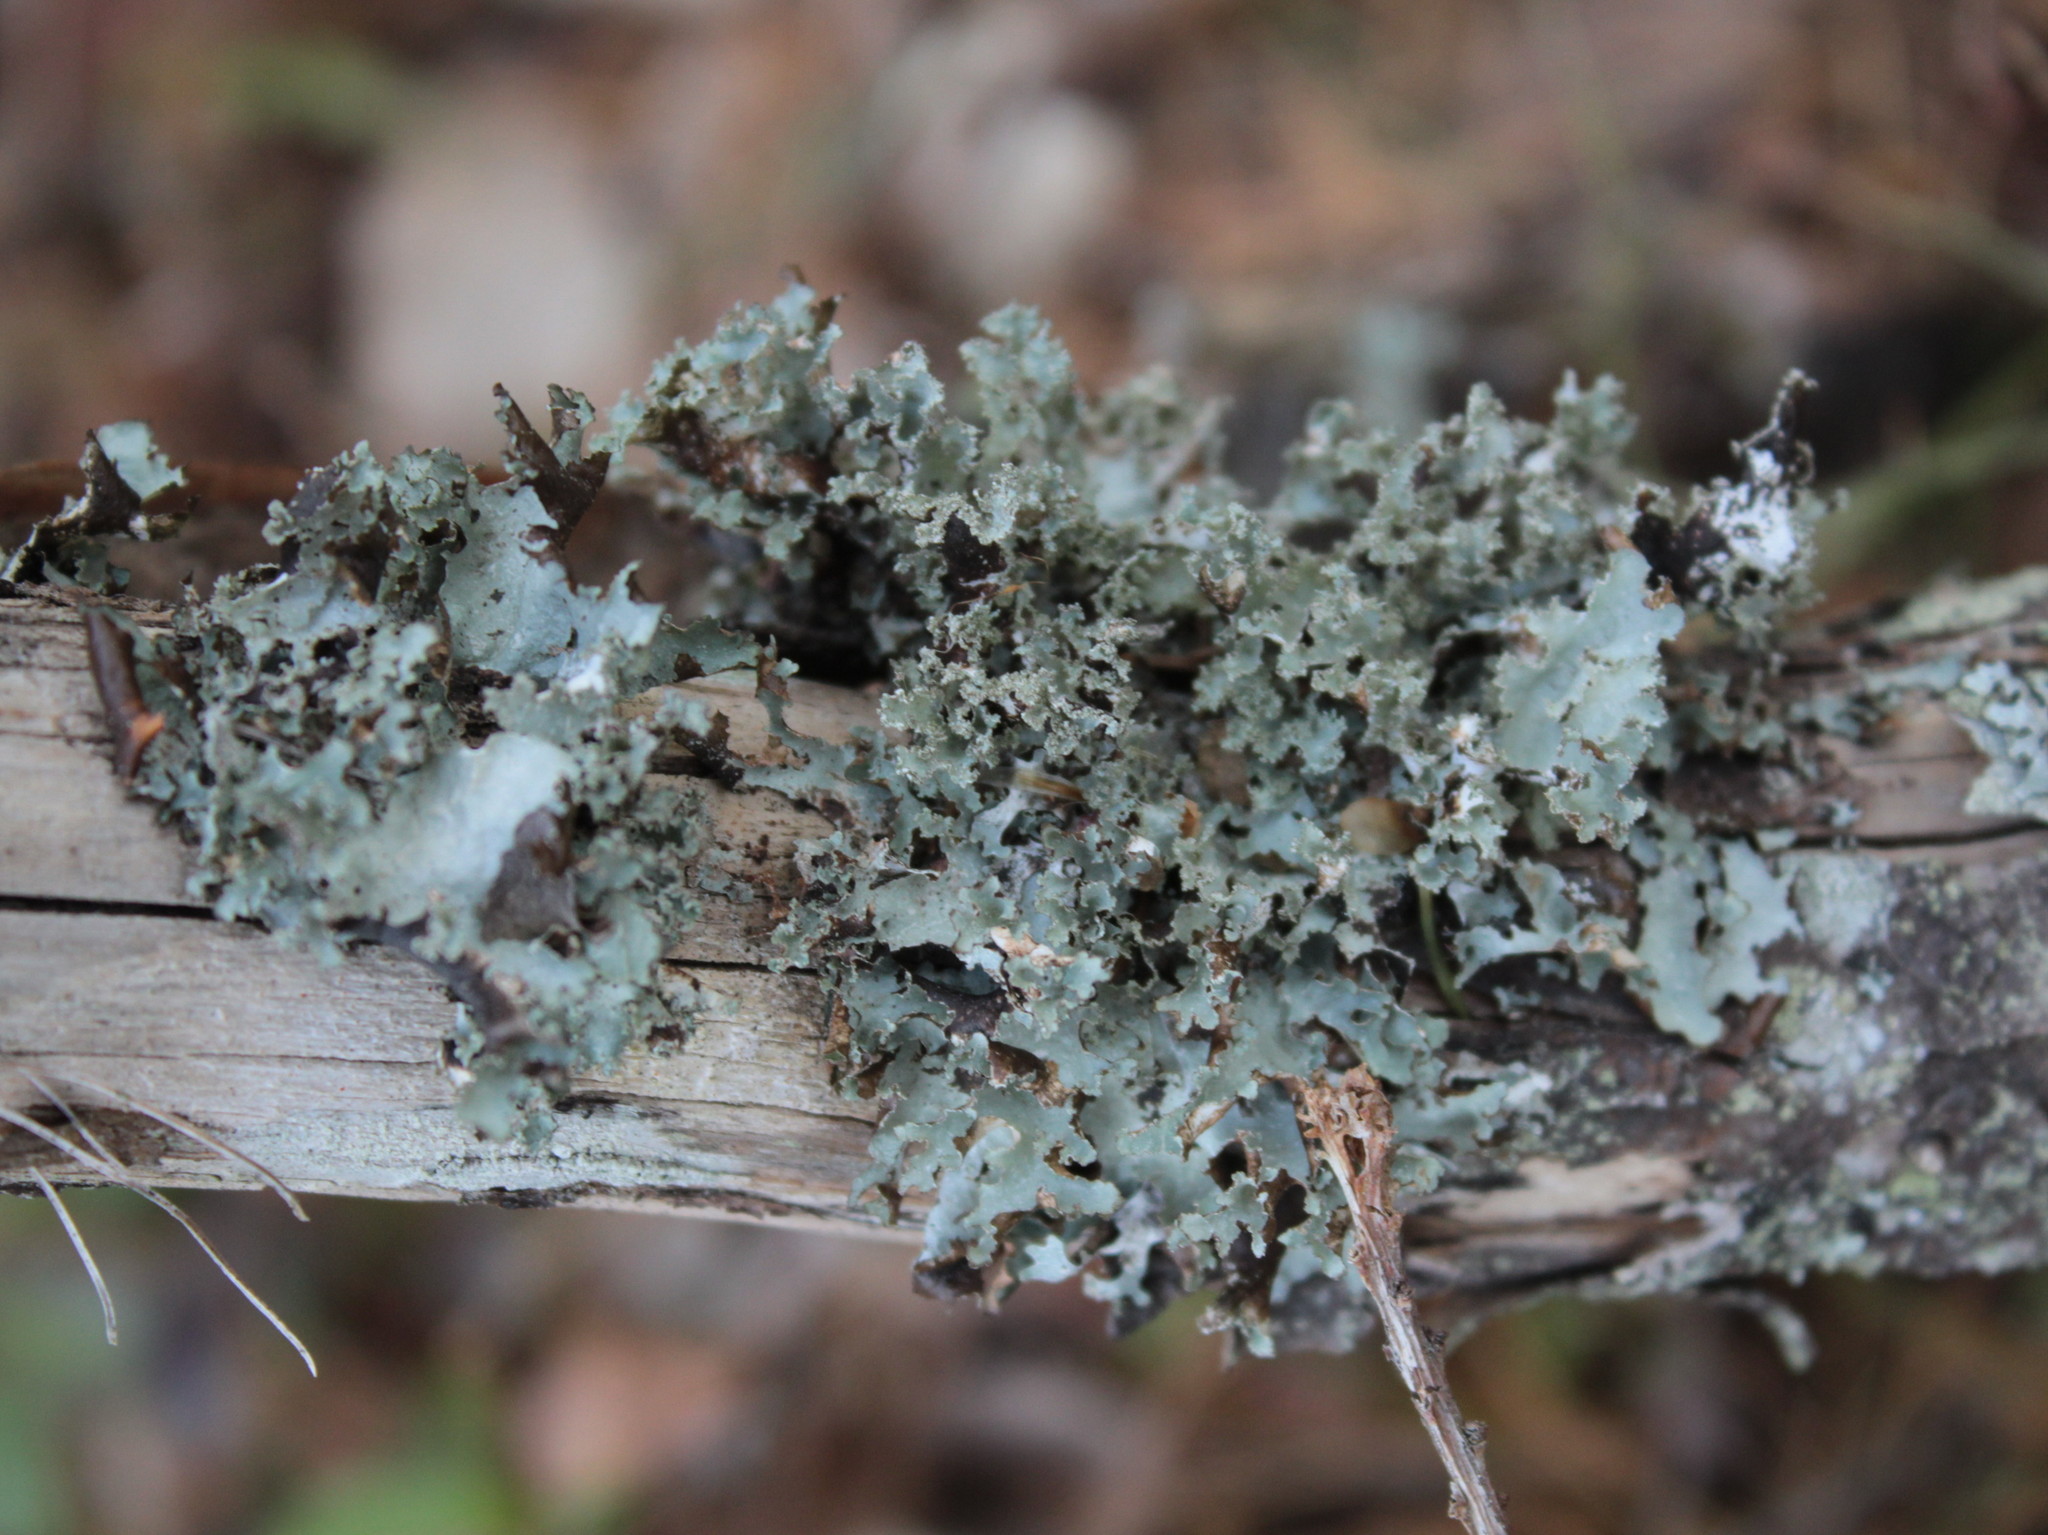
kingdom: Fungi
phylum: Ascomycota
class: Lecanoromycetes
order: Lecanorales
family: Parmeliaceae
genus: Platismatia
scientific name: Platismatia glauca
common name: Varied rag lichen
